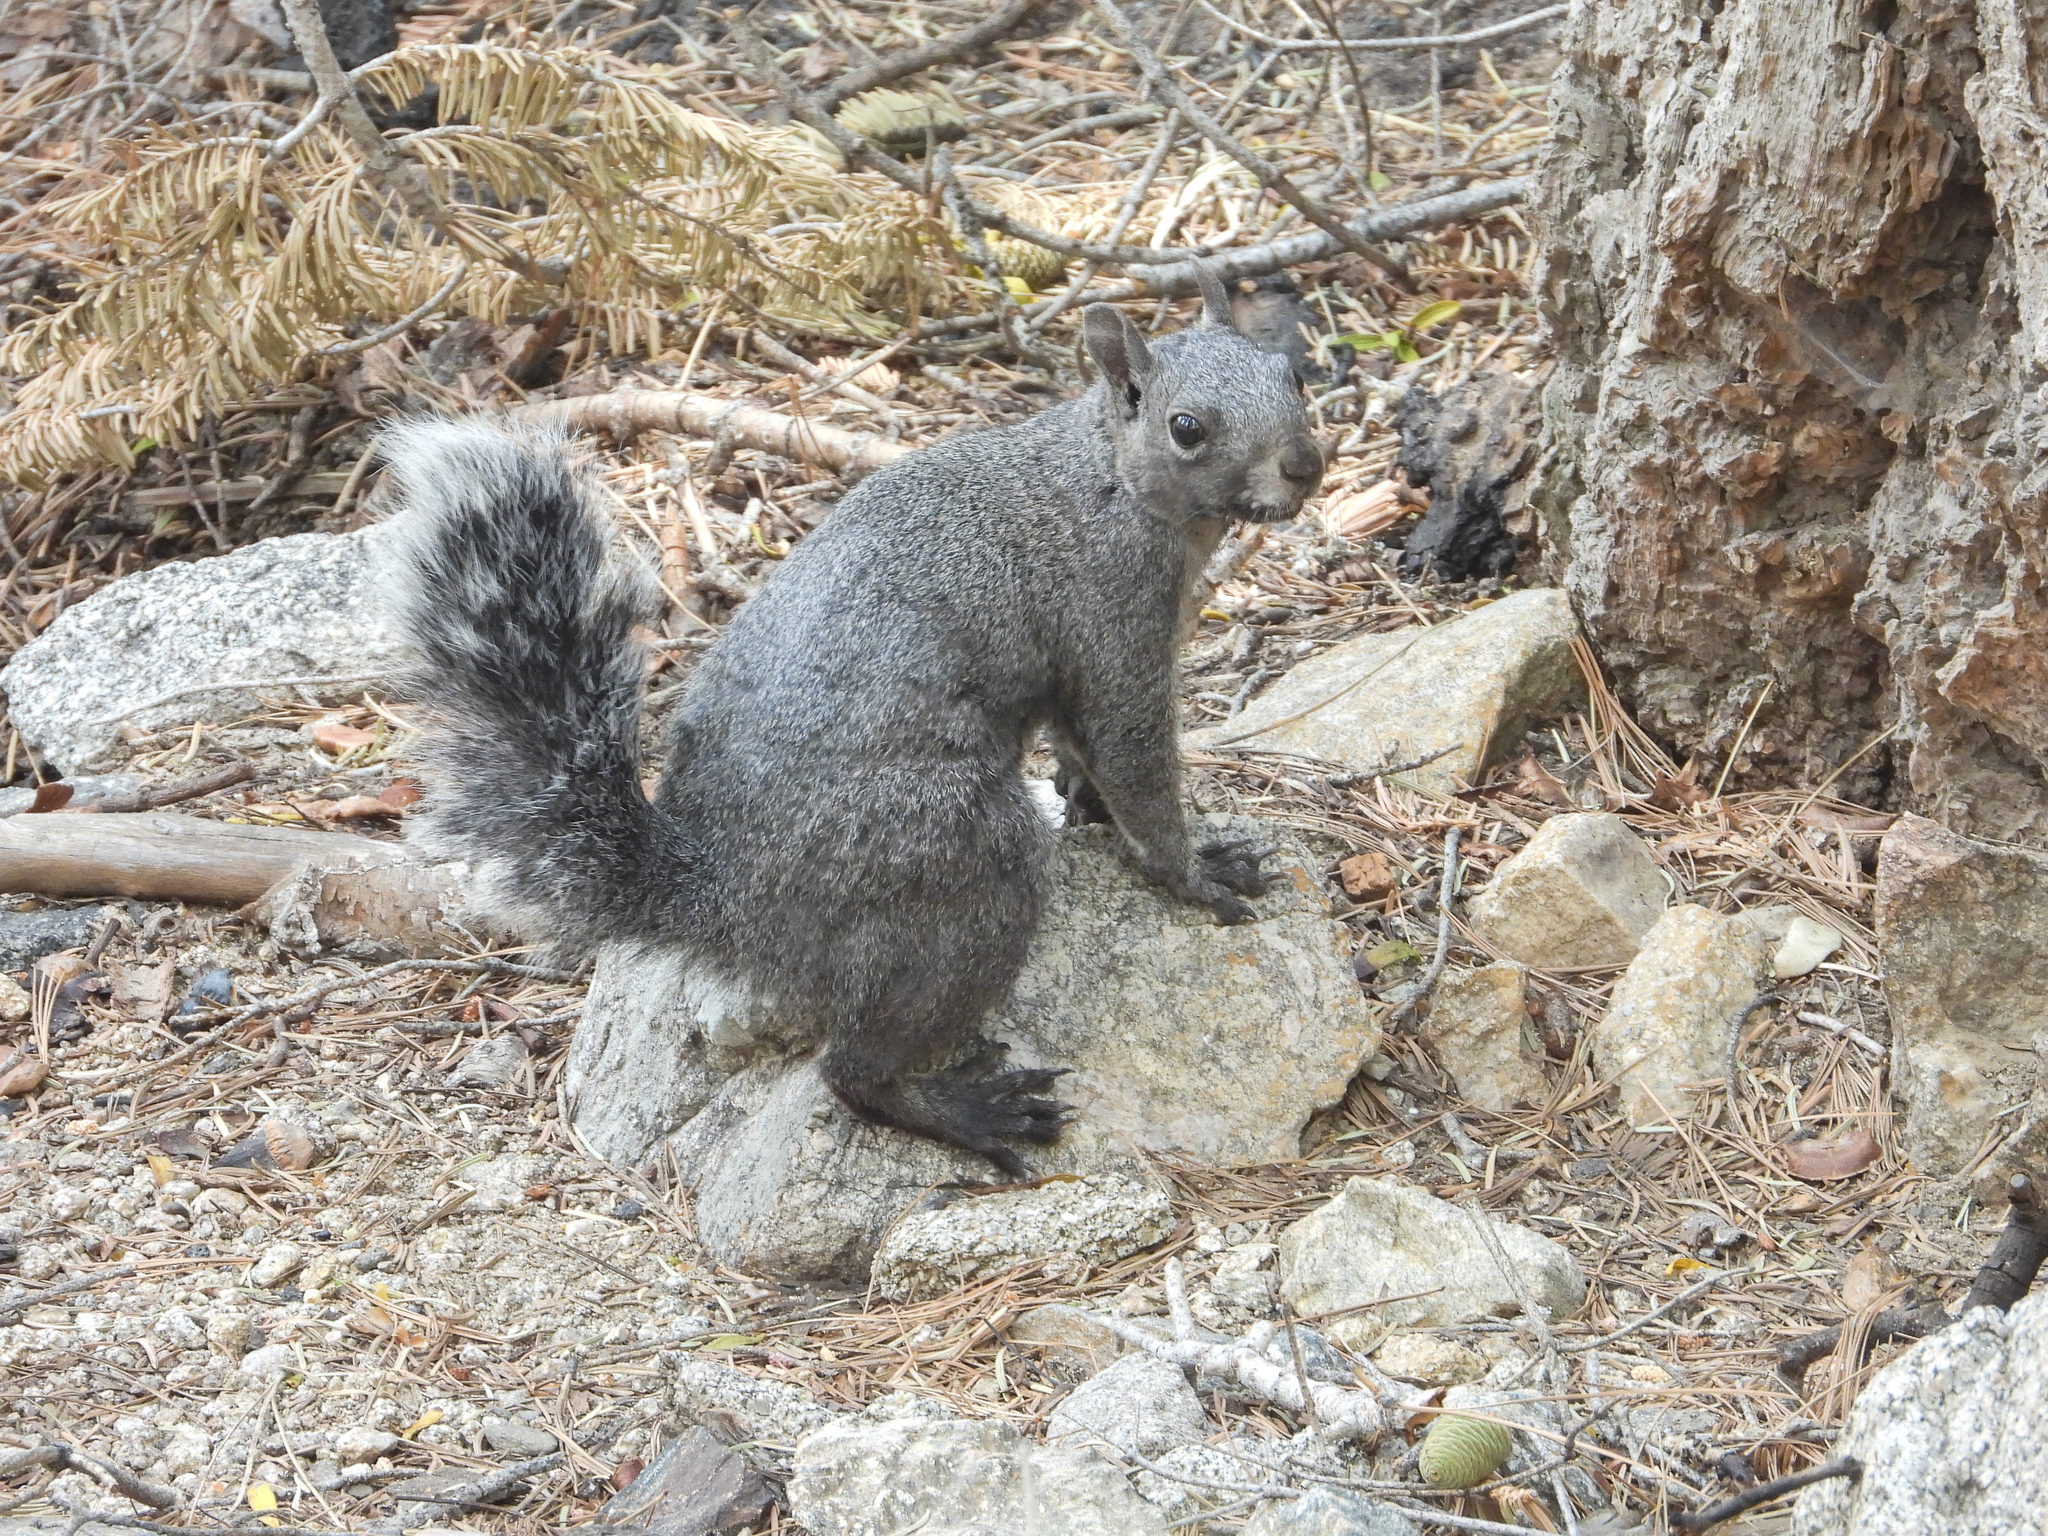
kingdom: Animalia
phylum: Chordata
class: Mammalia
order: Rodentia
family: Sciuridae
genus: Sciurus
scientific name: Sciurus griseus
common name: Western gray squirrel
